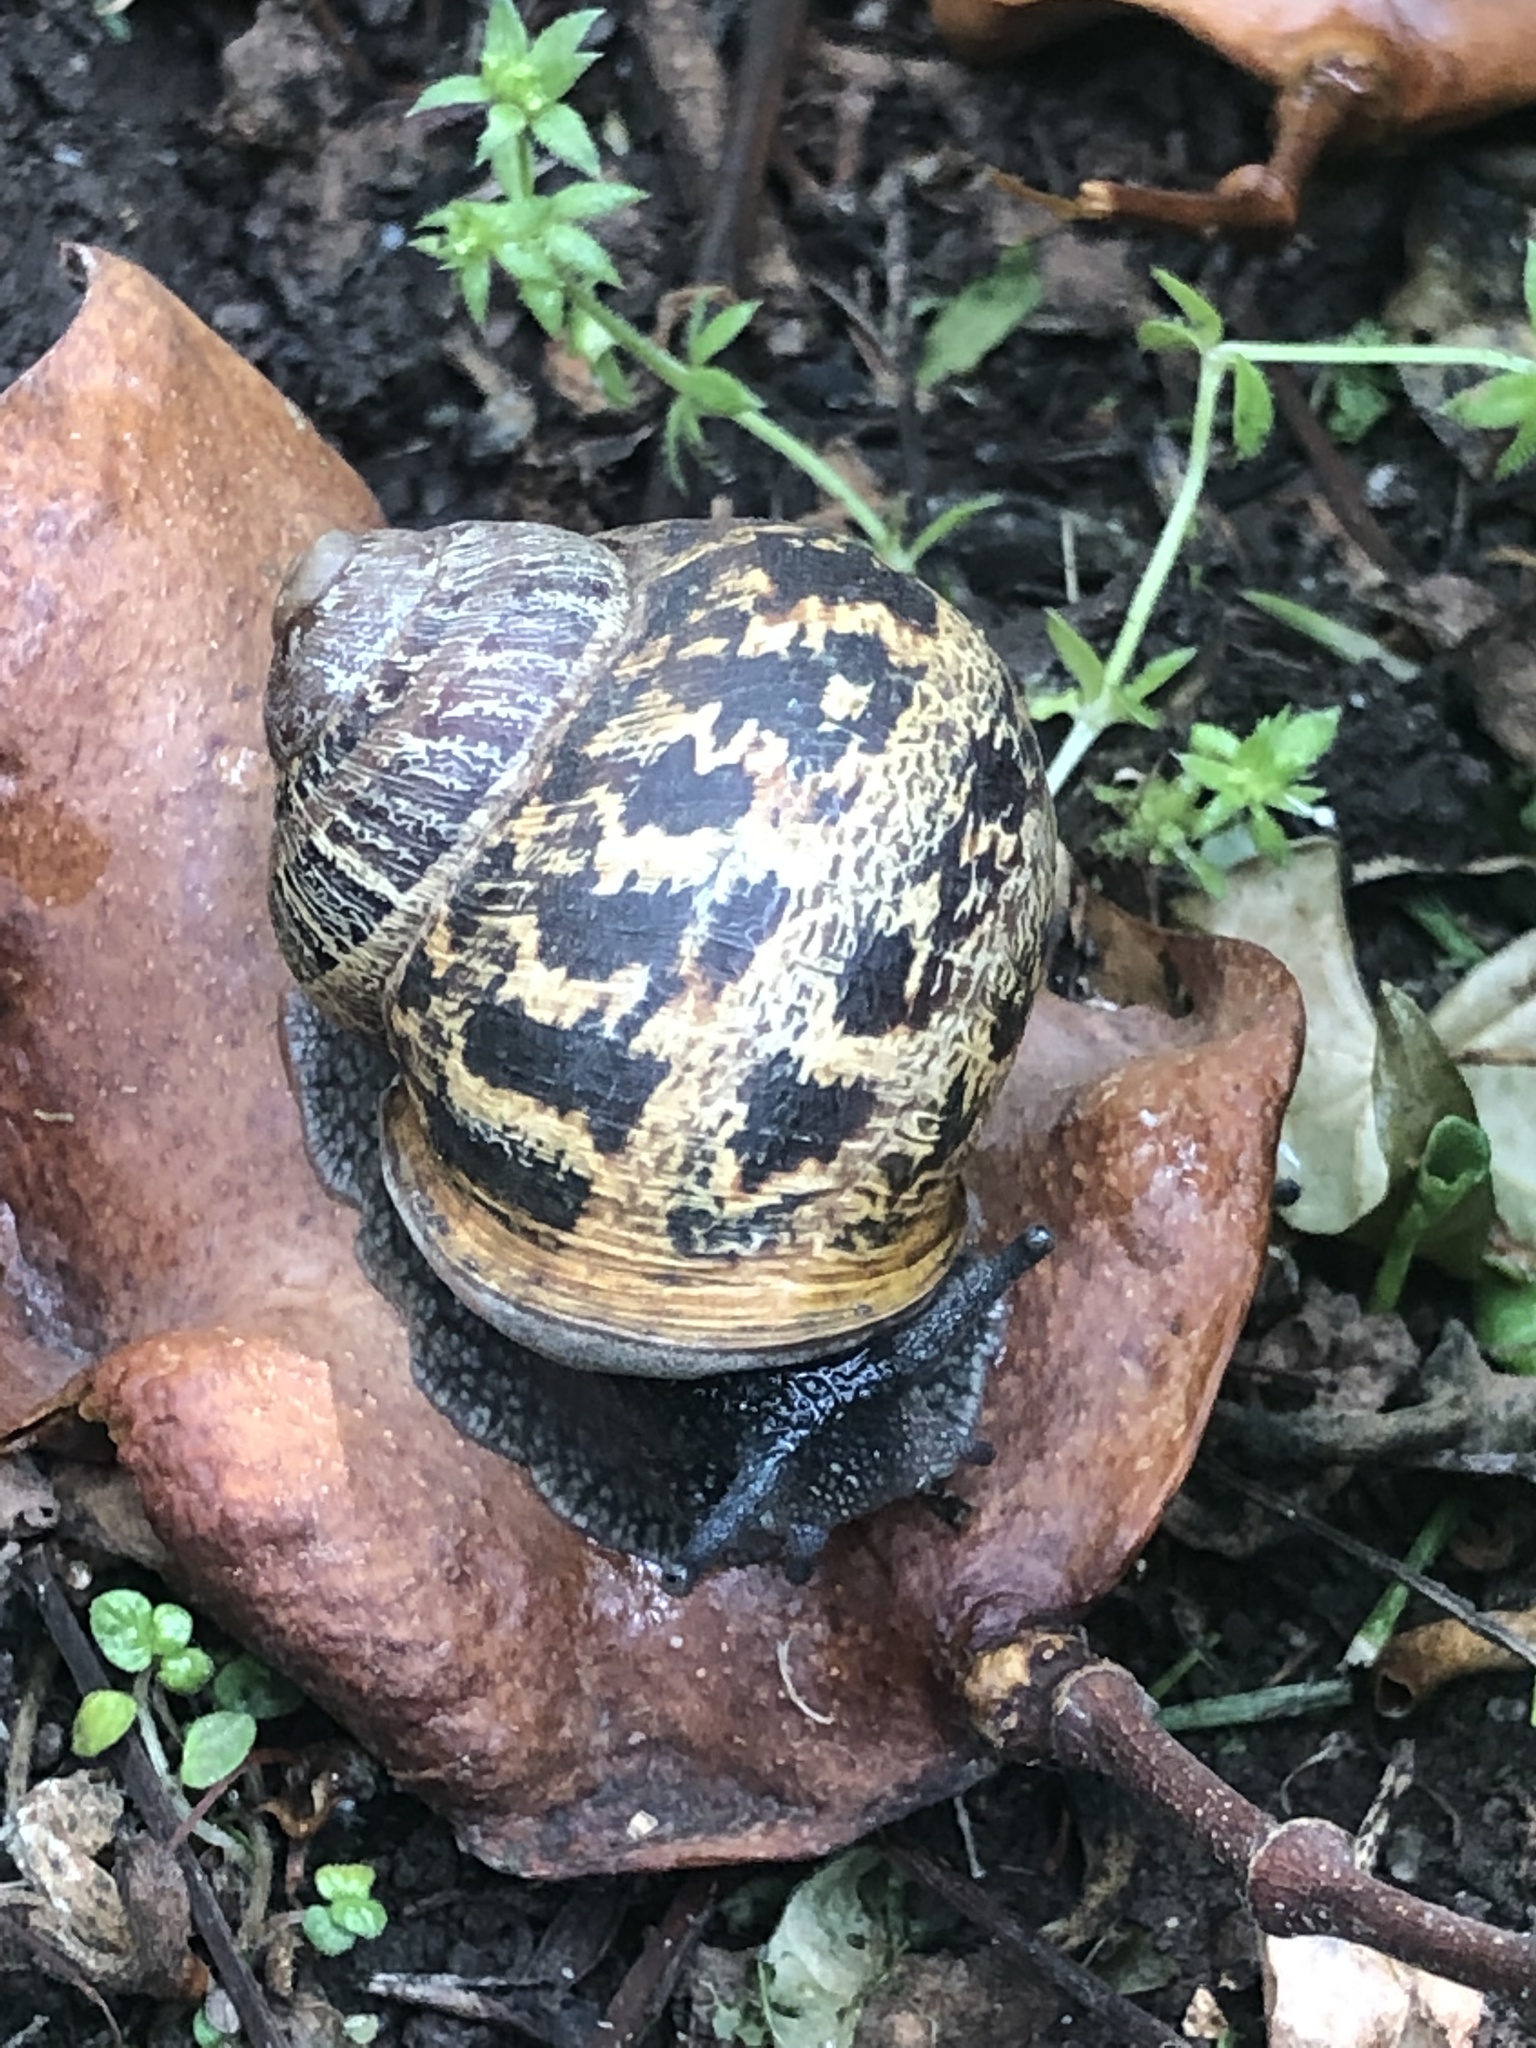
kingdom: Animalia
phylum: Mollusca
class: Gastropoda
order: Stylommatophora
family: Helicidae
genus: Cornu
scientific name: Cornu aspersum
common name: Brown garden snail
